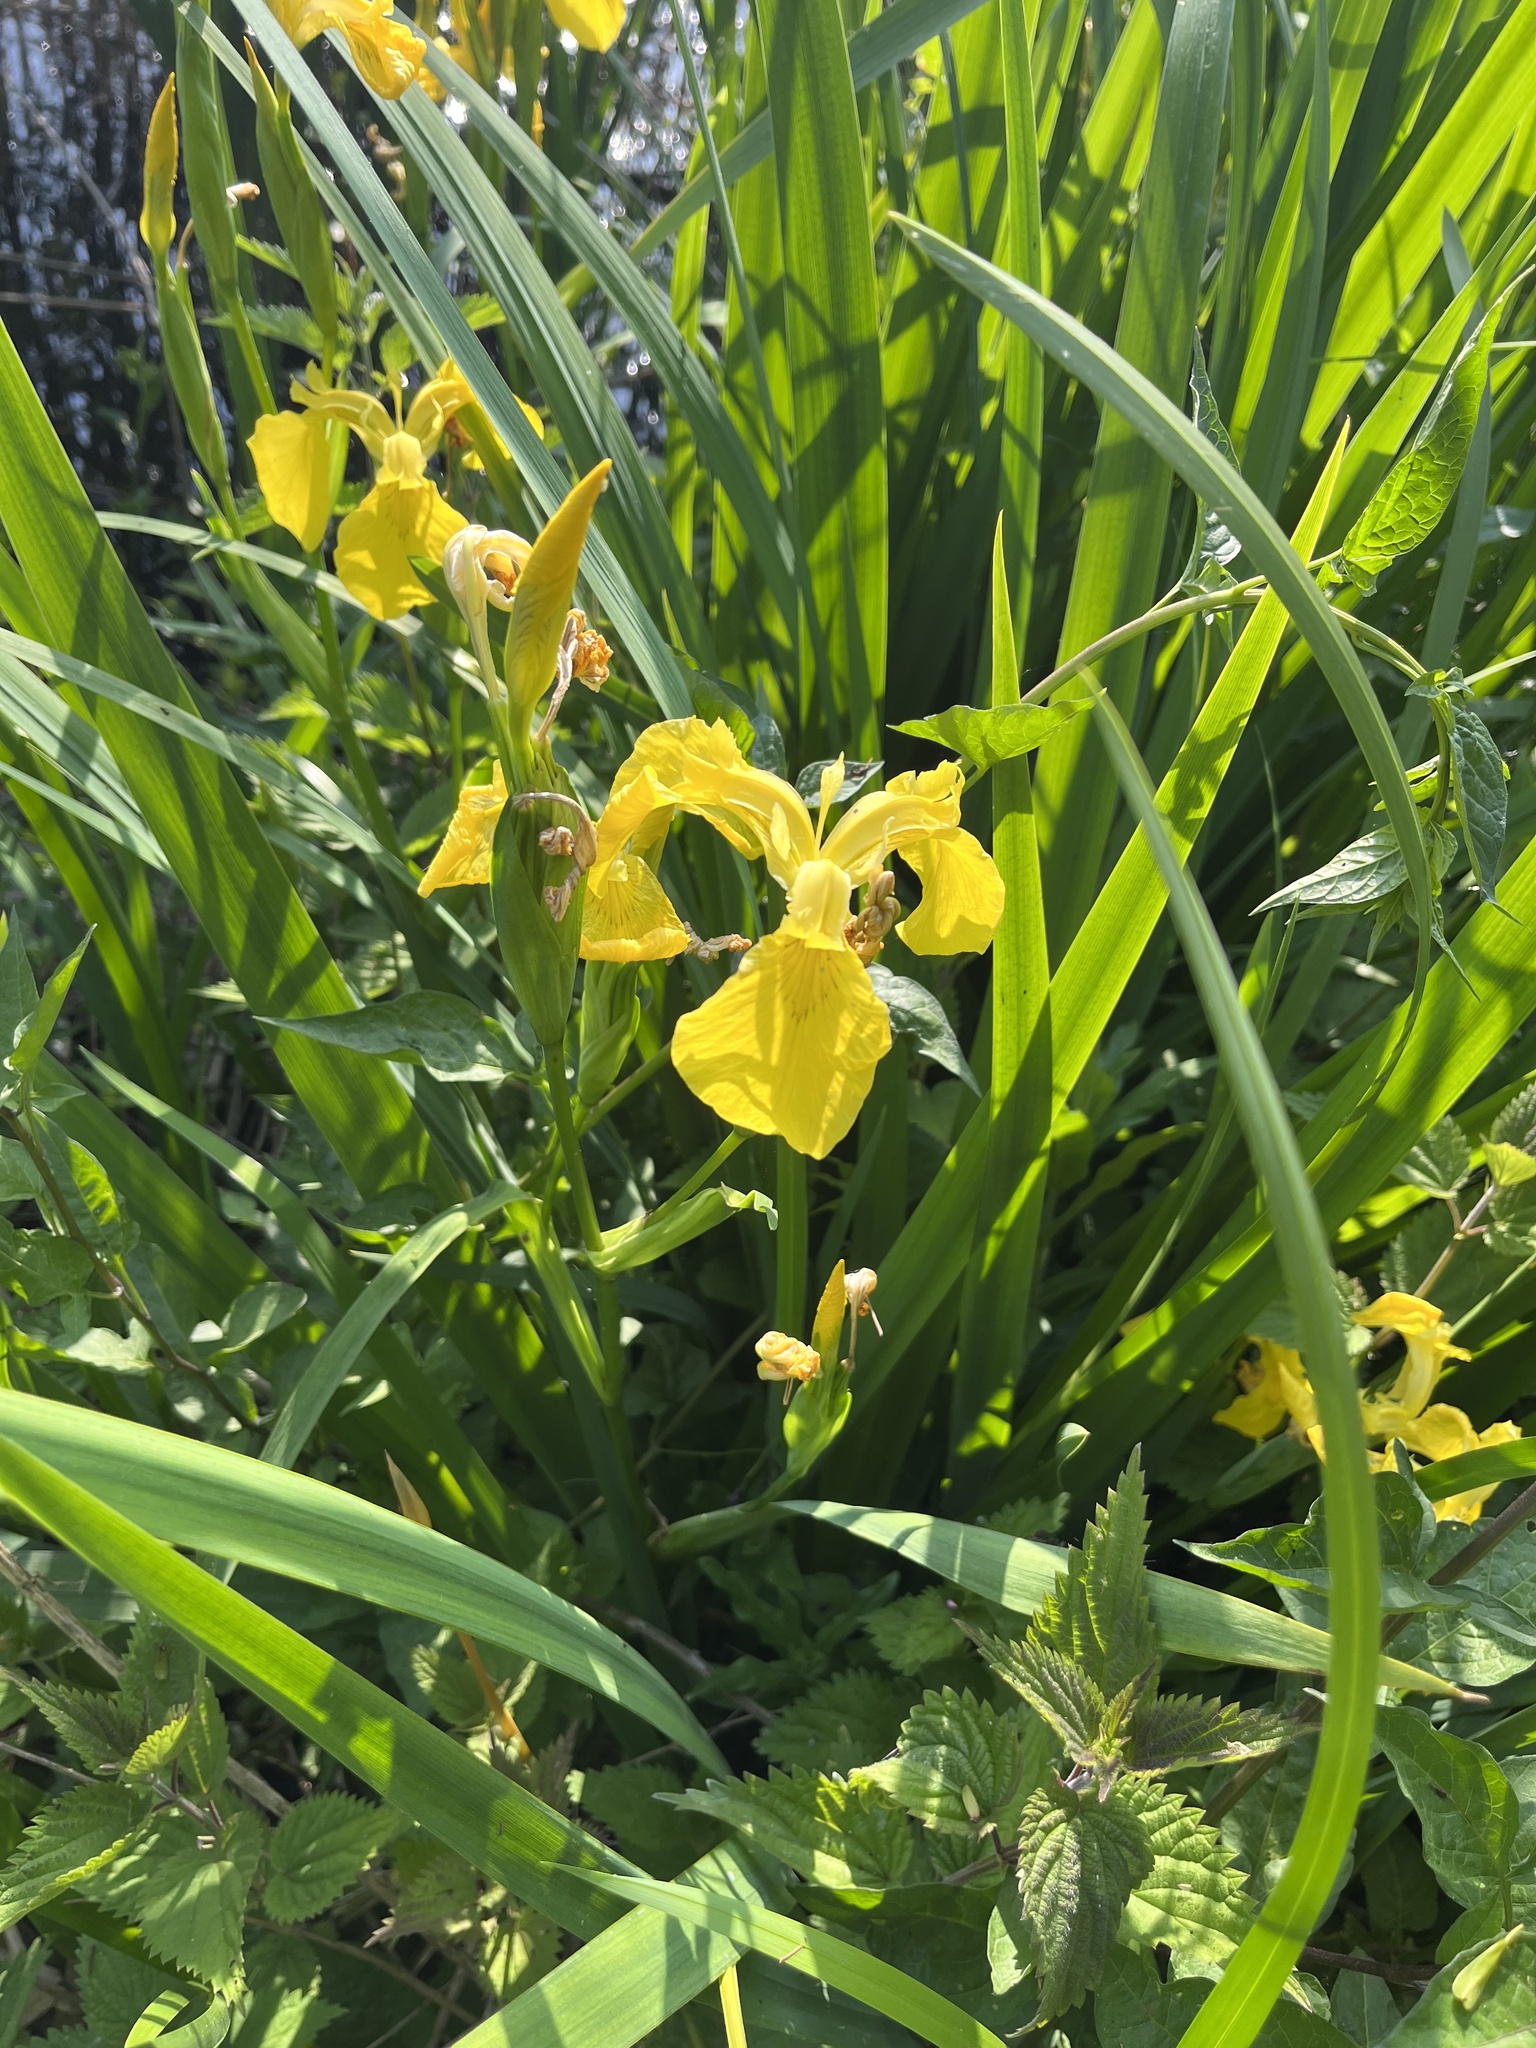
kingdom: Plantae
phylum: Tracheophyta
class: Liliopsida
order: Asparagales
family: Iridaceae
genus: Iris
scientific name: Iris pseudacorus
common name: Yellow flag
